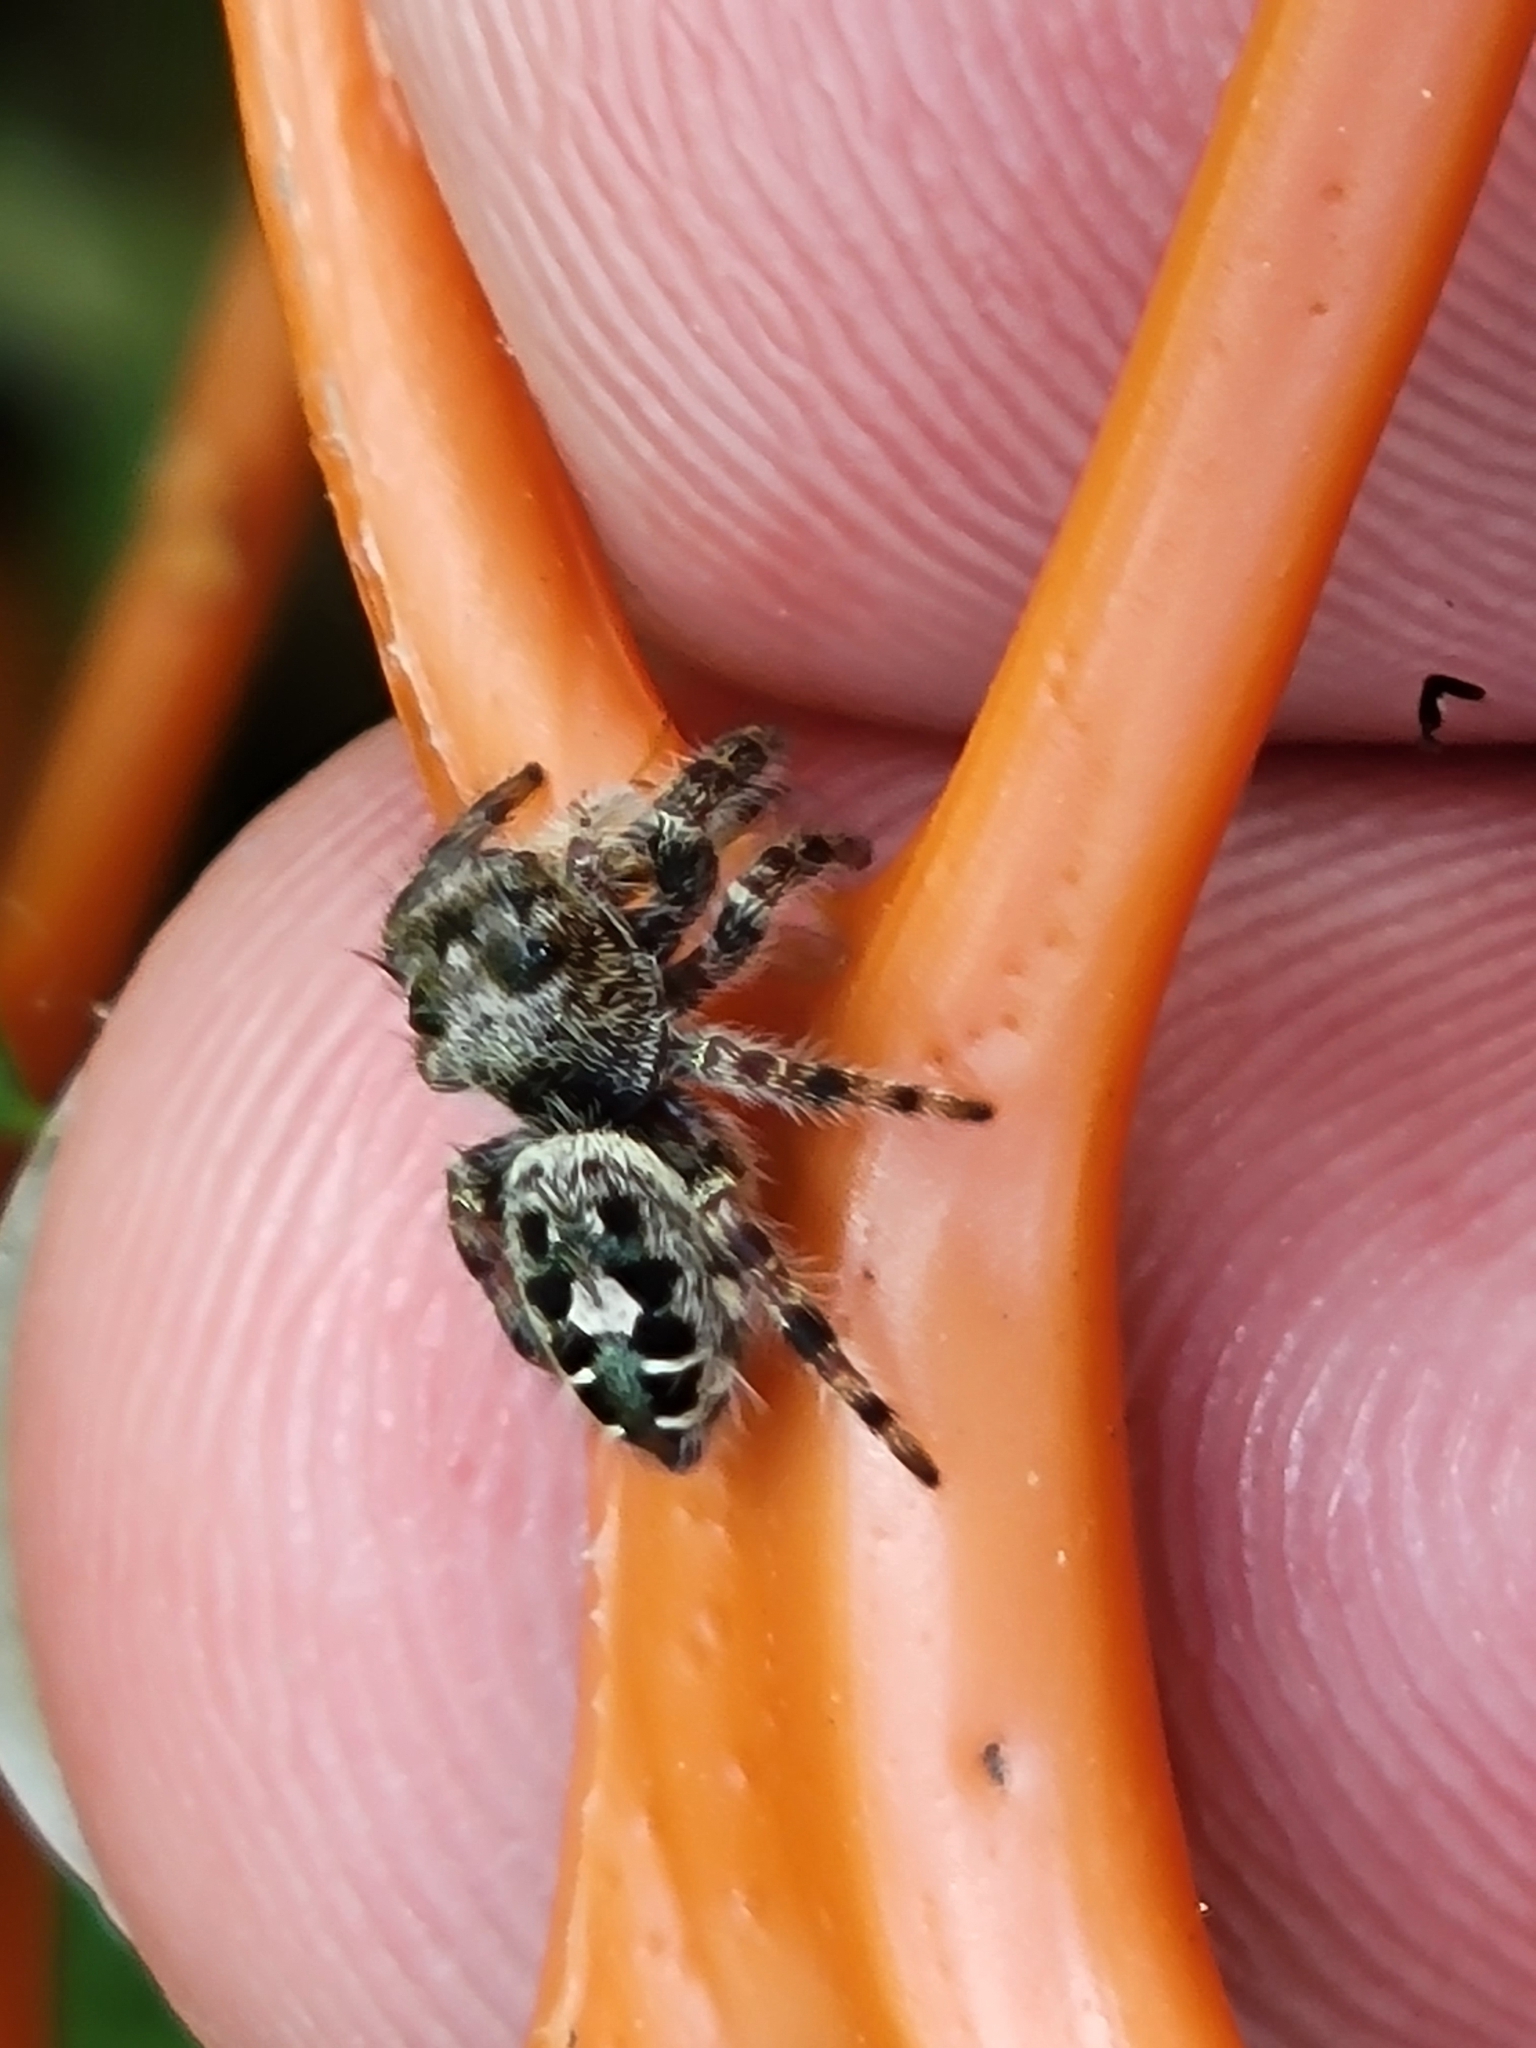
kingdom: Animalia
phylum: Arthropoda
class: Arachnida
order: Araneae
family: Salticidae
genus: Phidippus
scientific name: Phidippus putnami
